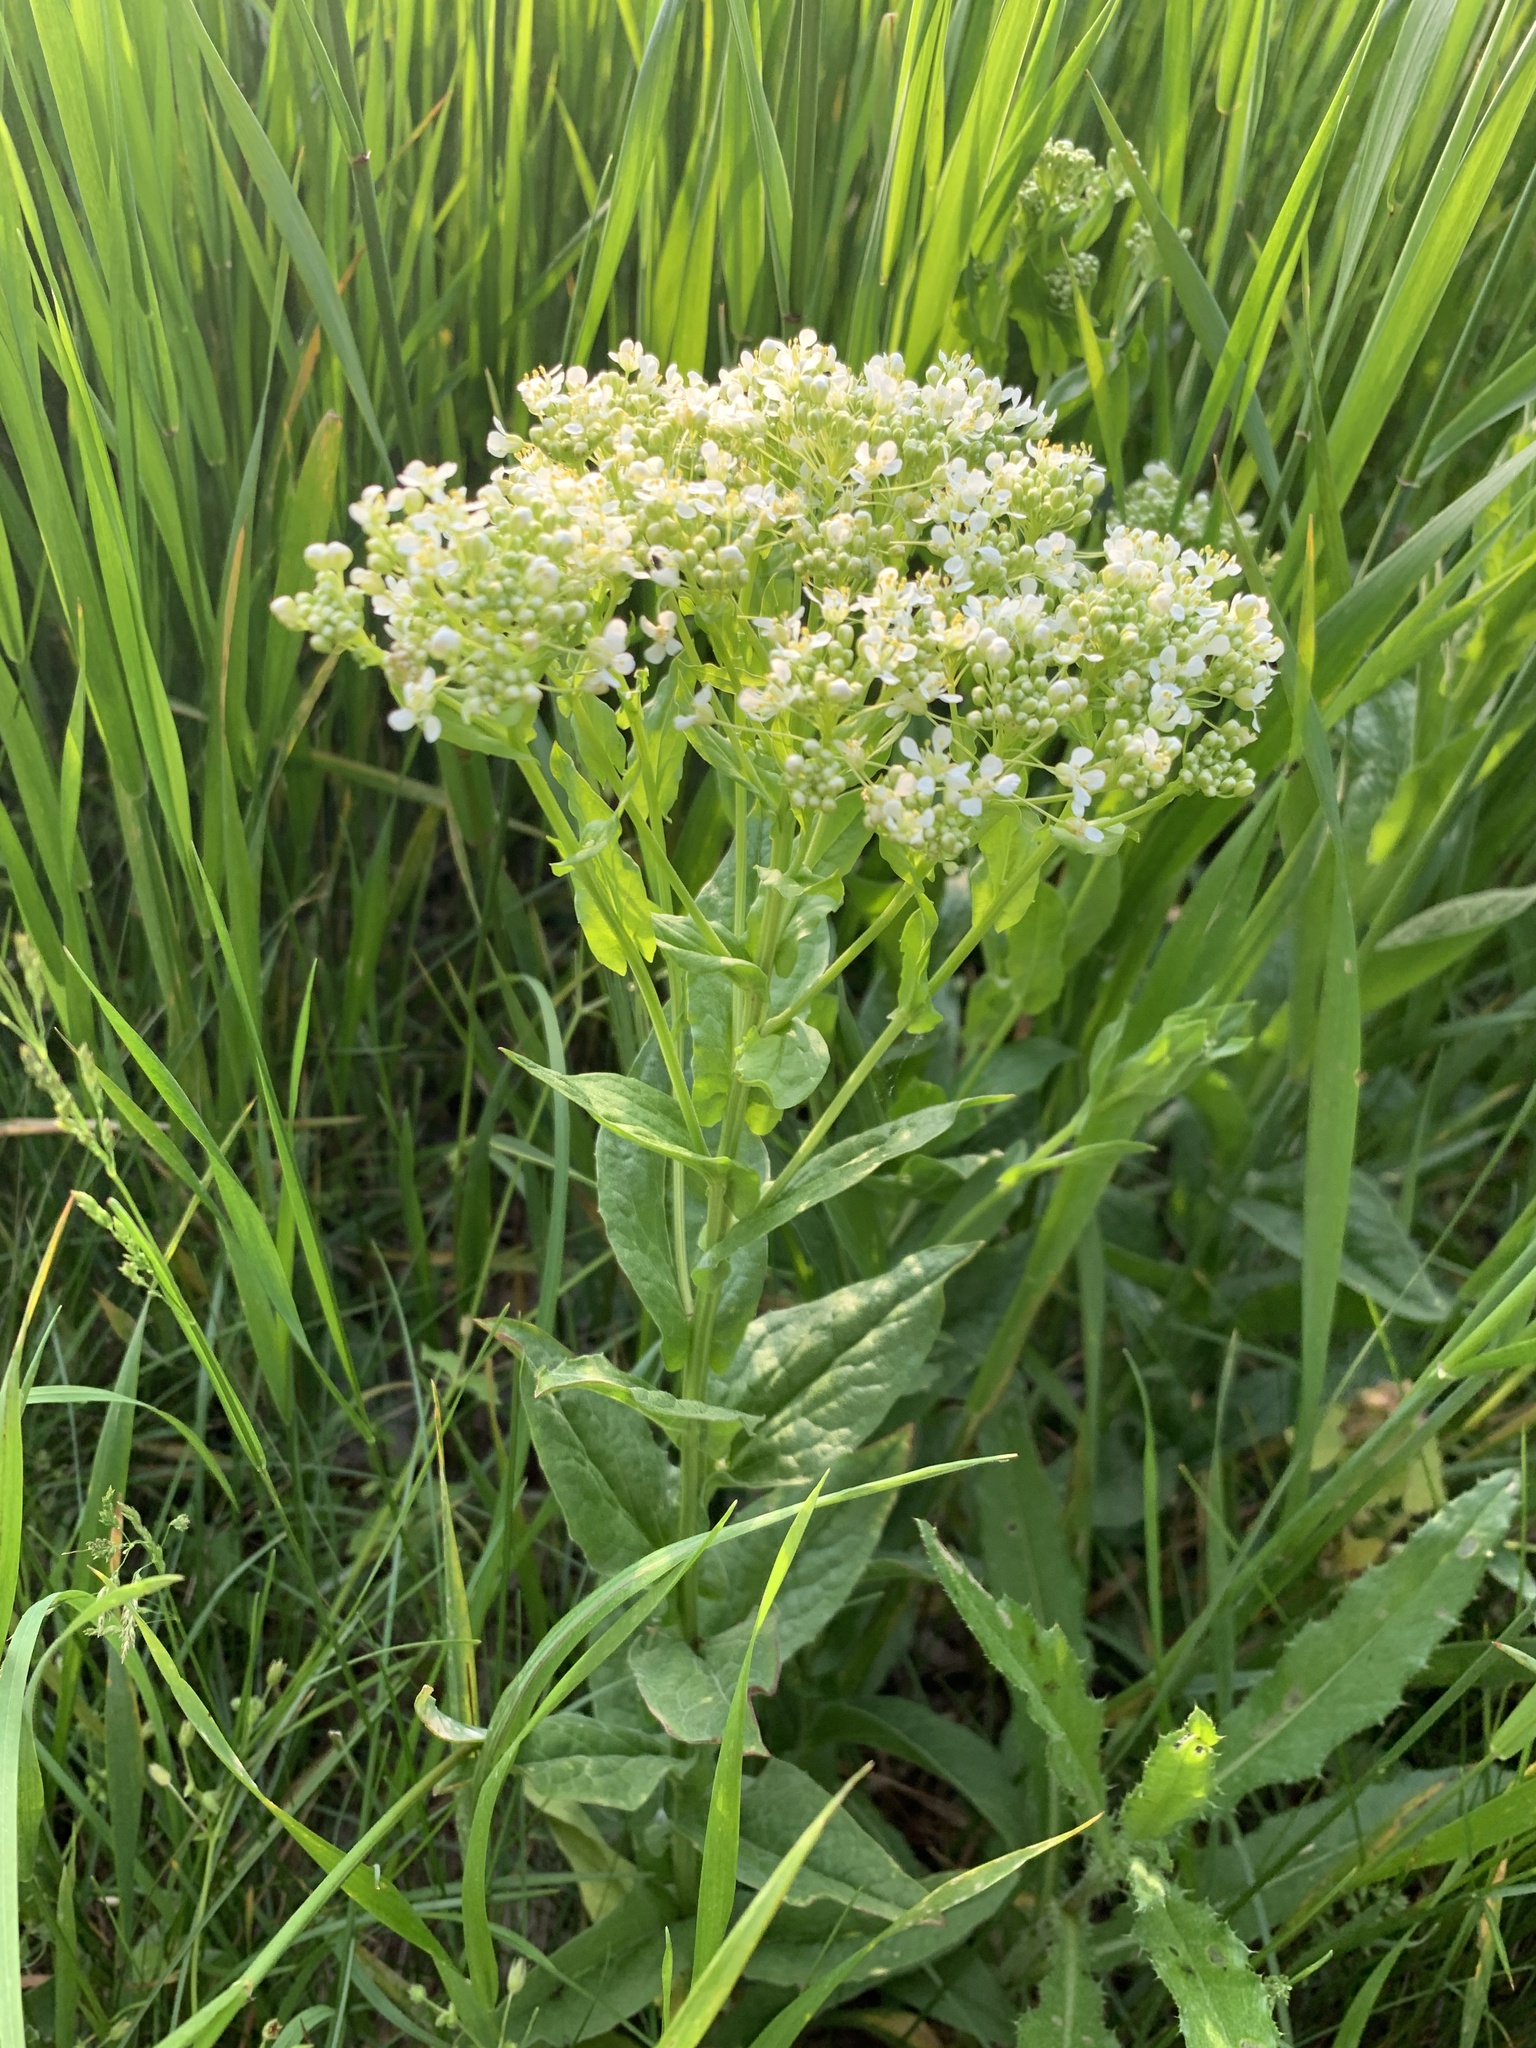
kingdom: Plantae
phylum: Tracheophyta
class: Magnoliopsida
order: Brassicales
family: Brassicaceae
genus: Lepidium
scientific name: Lepidium draba
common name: Hoary cress
